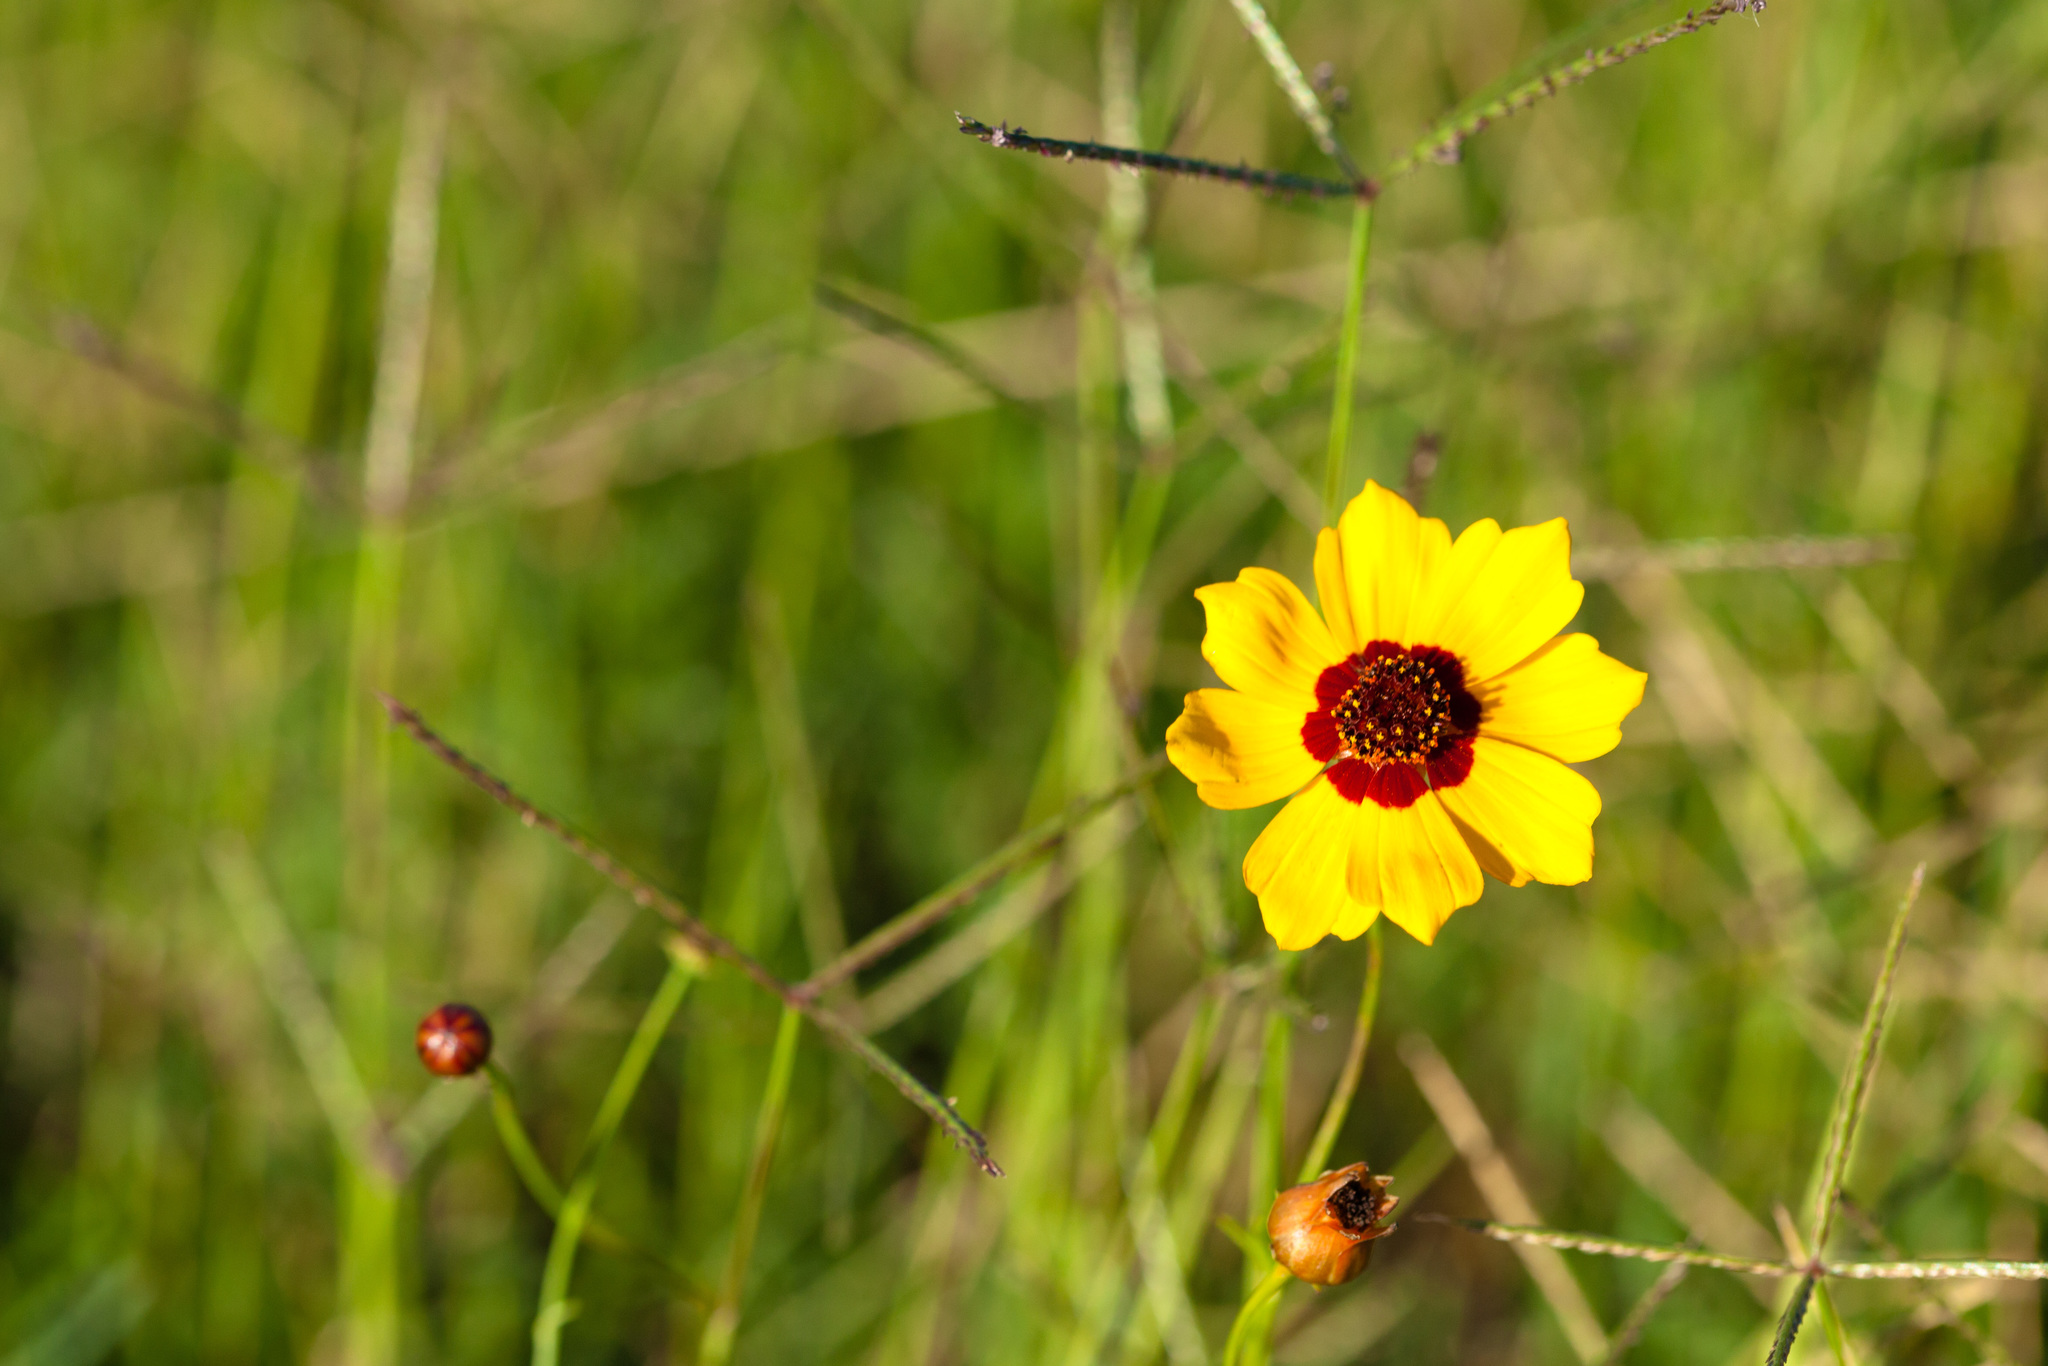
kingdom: Plantae
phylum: Tracheophyta
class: Magnoliopsida
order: Asterales
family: Asteraceae
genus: Coreopsis
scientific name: Coreopsis tinctoria
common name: Garden tickseed
